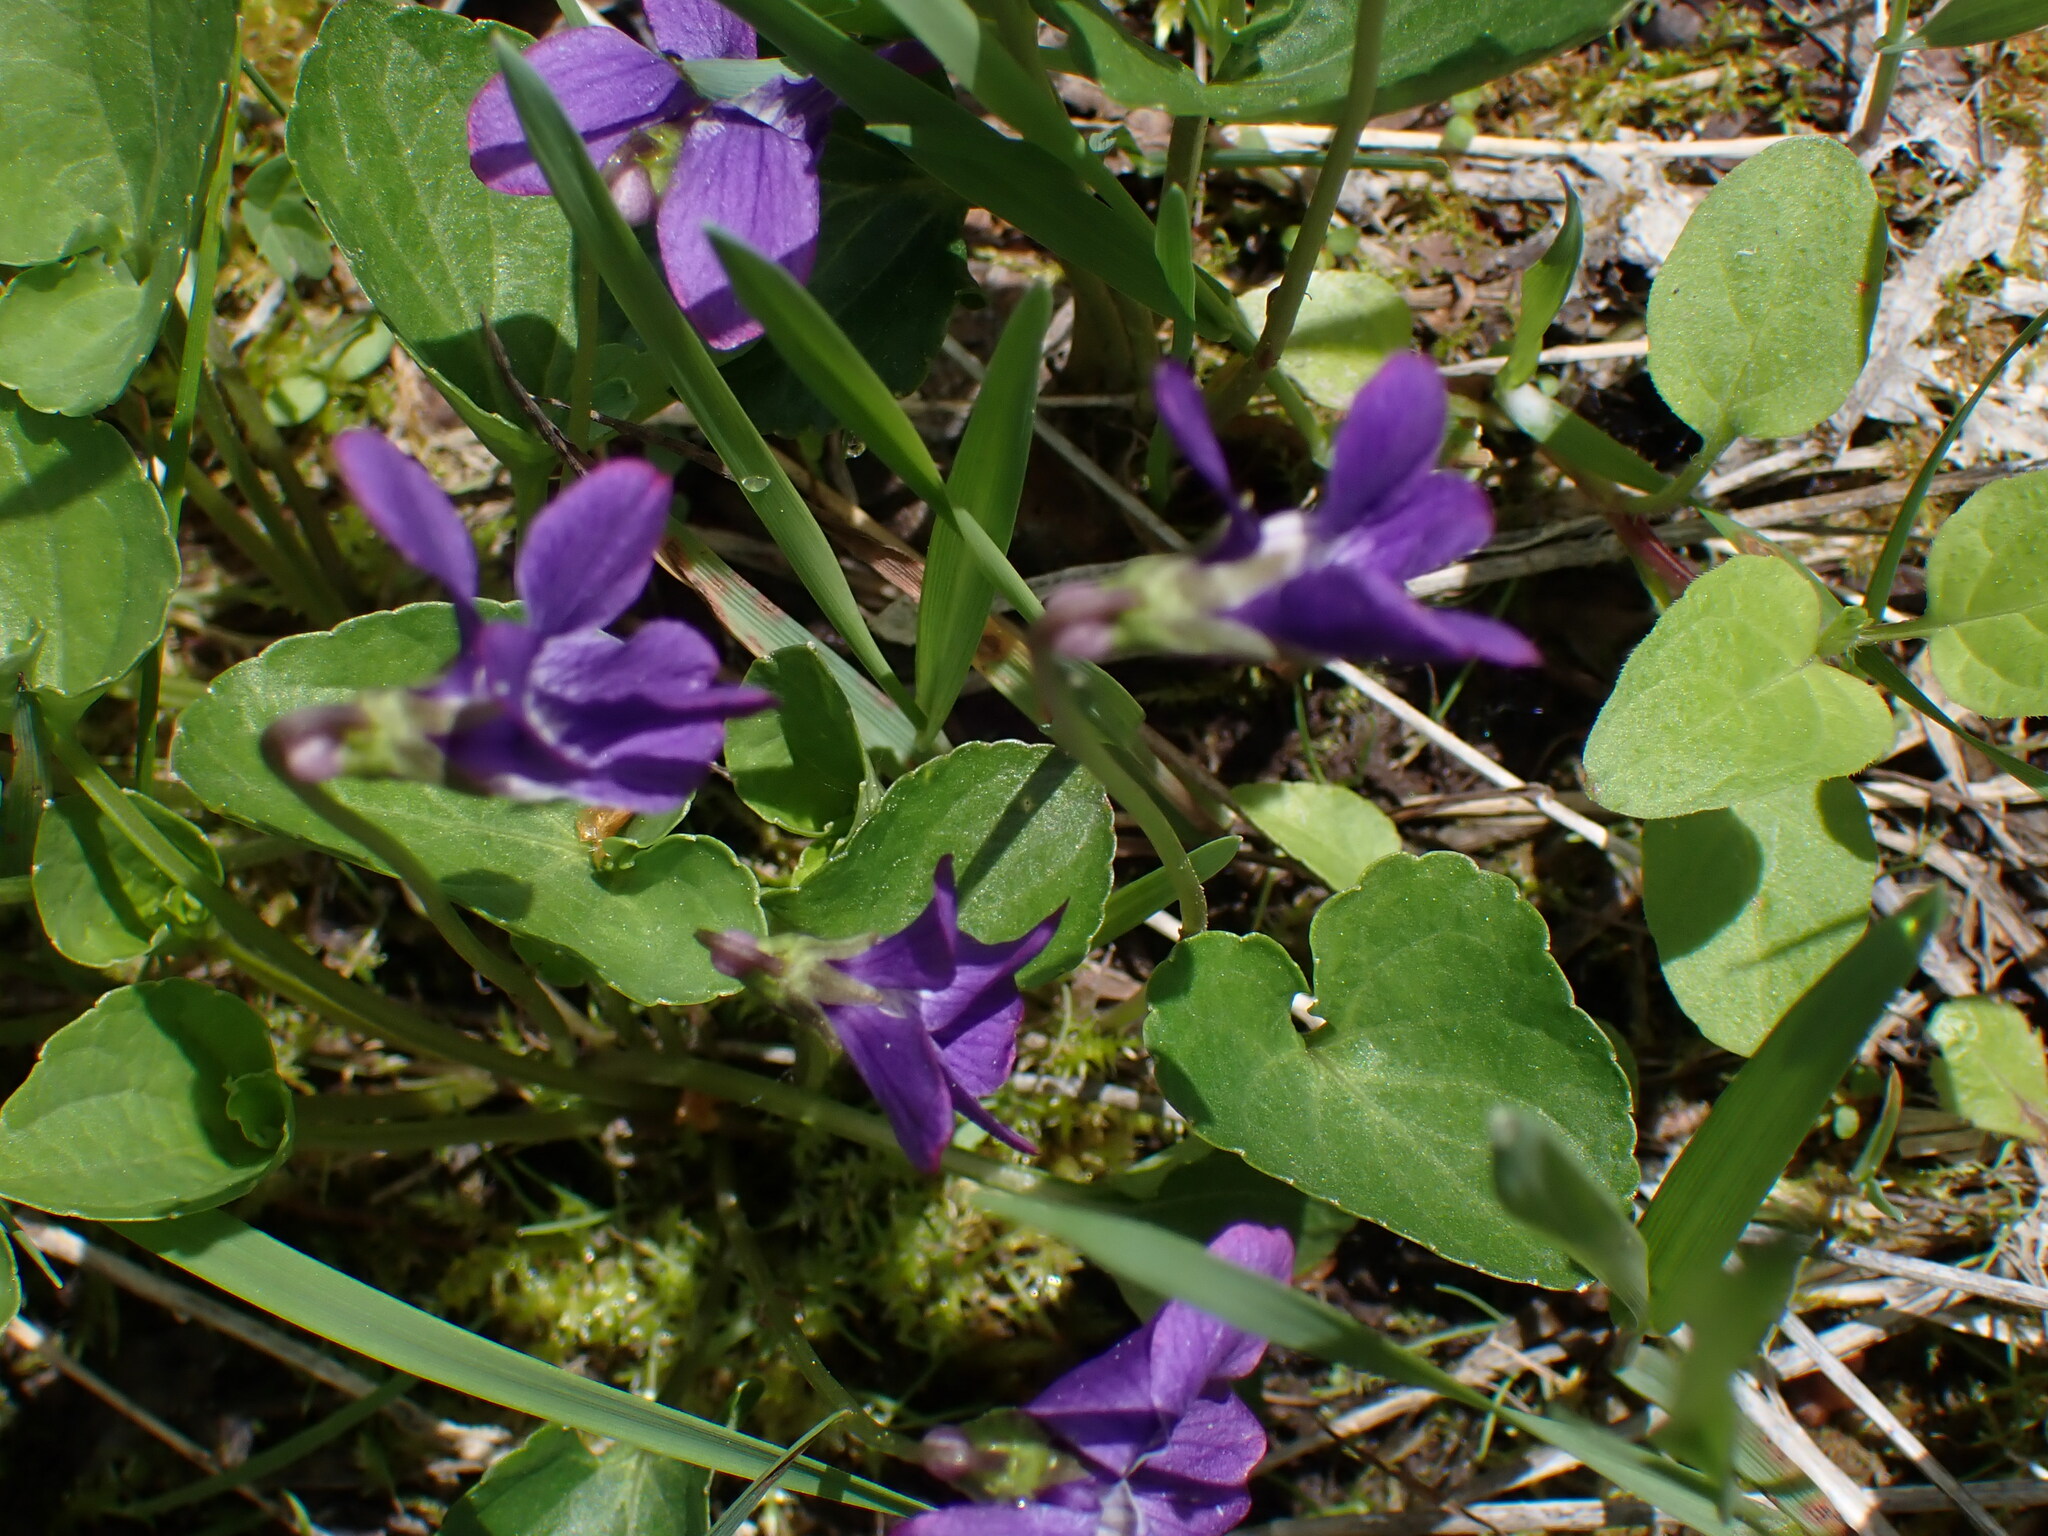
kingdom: Plantae
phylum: Tracheophyta
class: Magnoliopsida
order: Malpighiales
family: Violaceae
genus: Viola
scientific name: Viola nephrophylla
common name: Blue meadow violet
